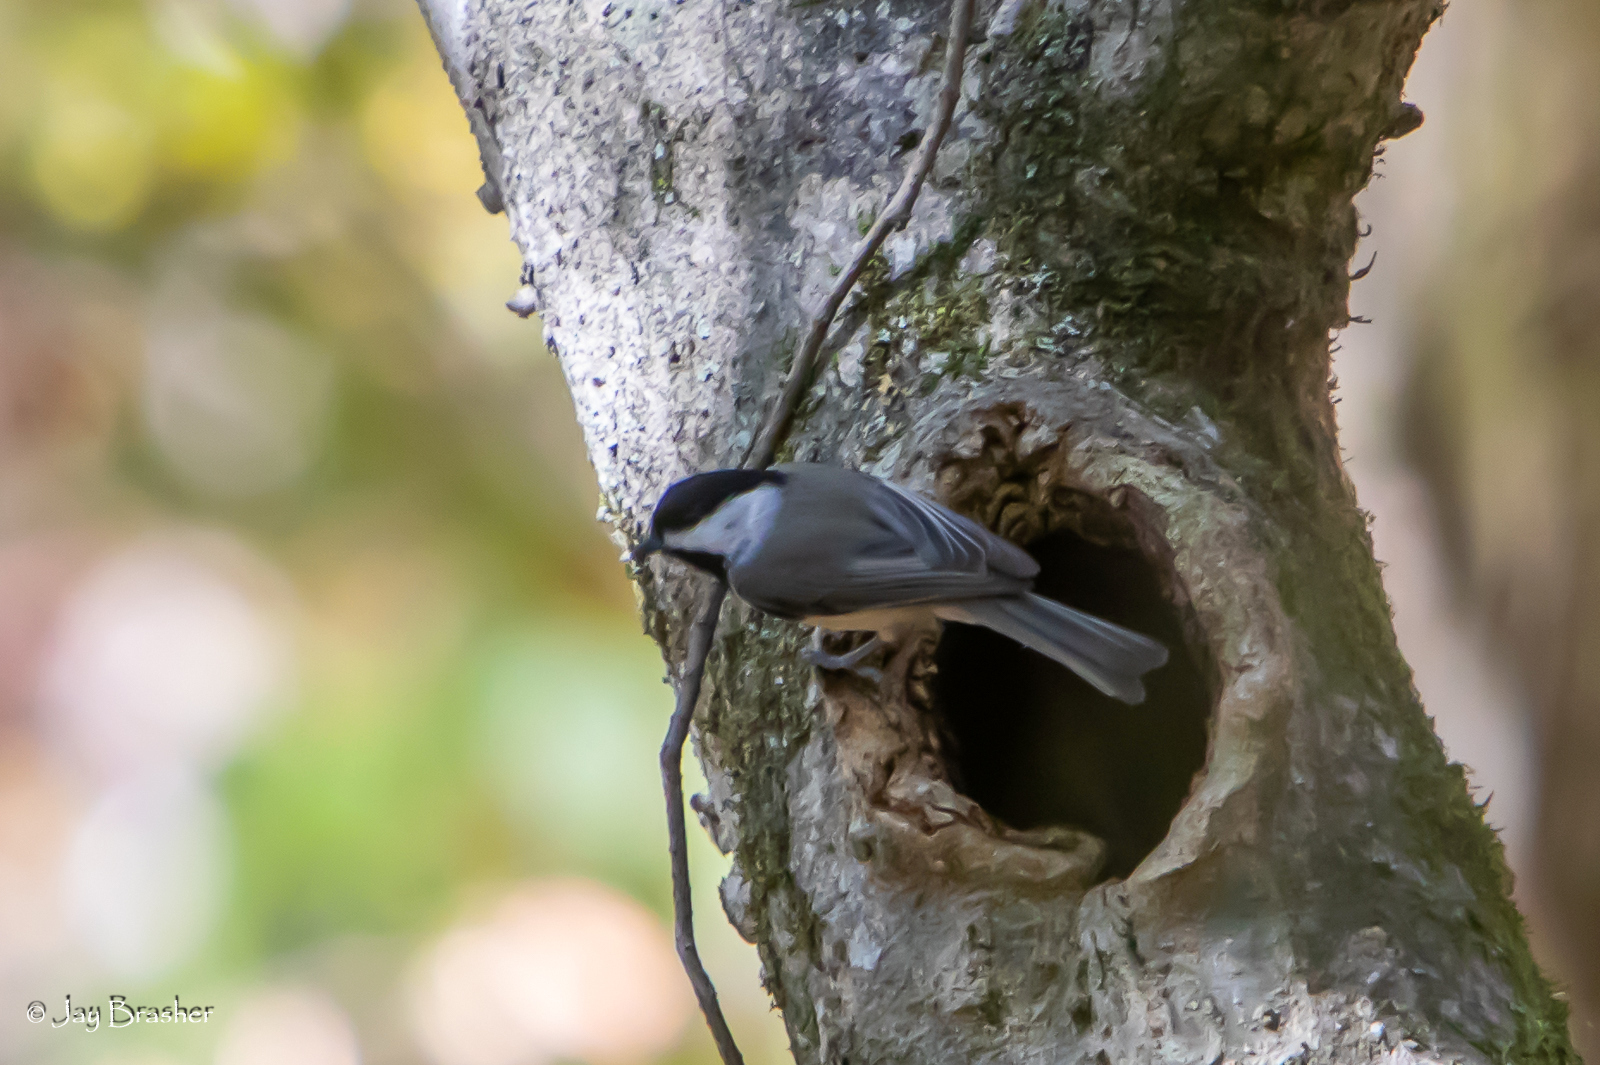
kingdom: Animalia
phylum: Chordata
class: Aves
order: Passeriformes
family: Paridae
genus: Poecile
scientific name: Poecile carolinensis
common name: Carolina chickadee
